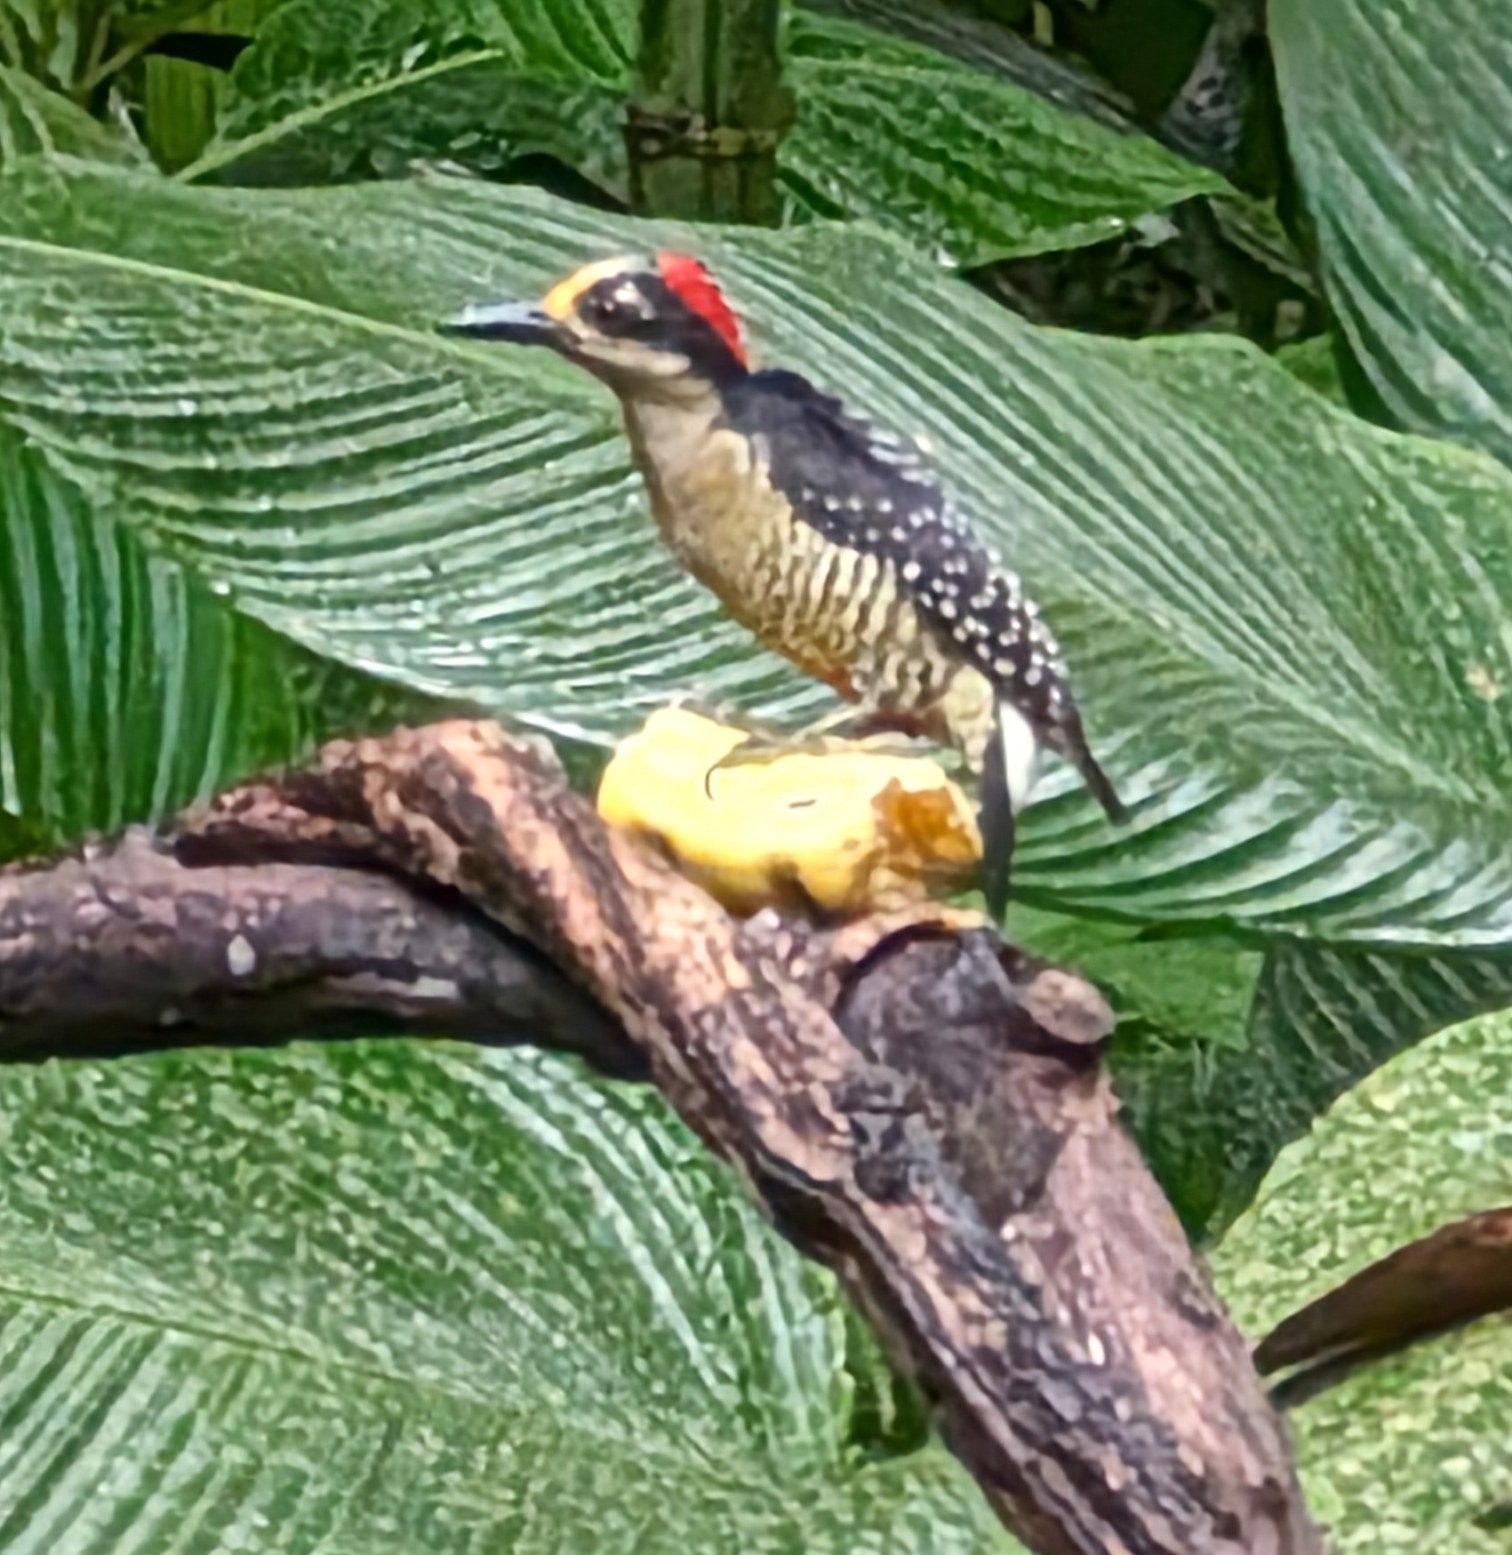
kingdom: Animalia
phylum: Chordata
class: Aves
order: Piciformes
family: Picidae
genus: Melanerpes
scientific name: Melanerpes pucherani
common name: Black-cheeked woodpecker
